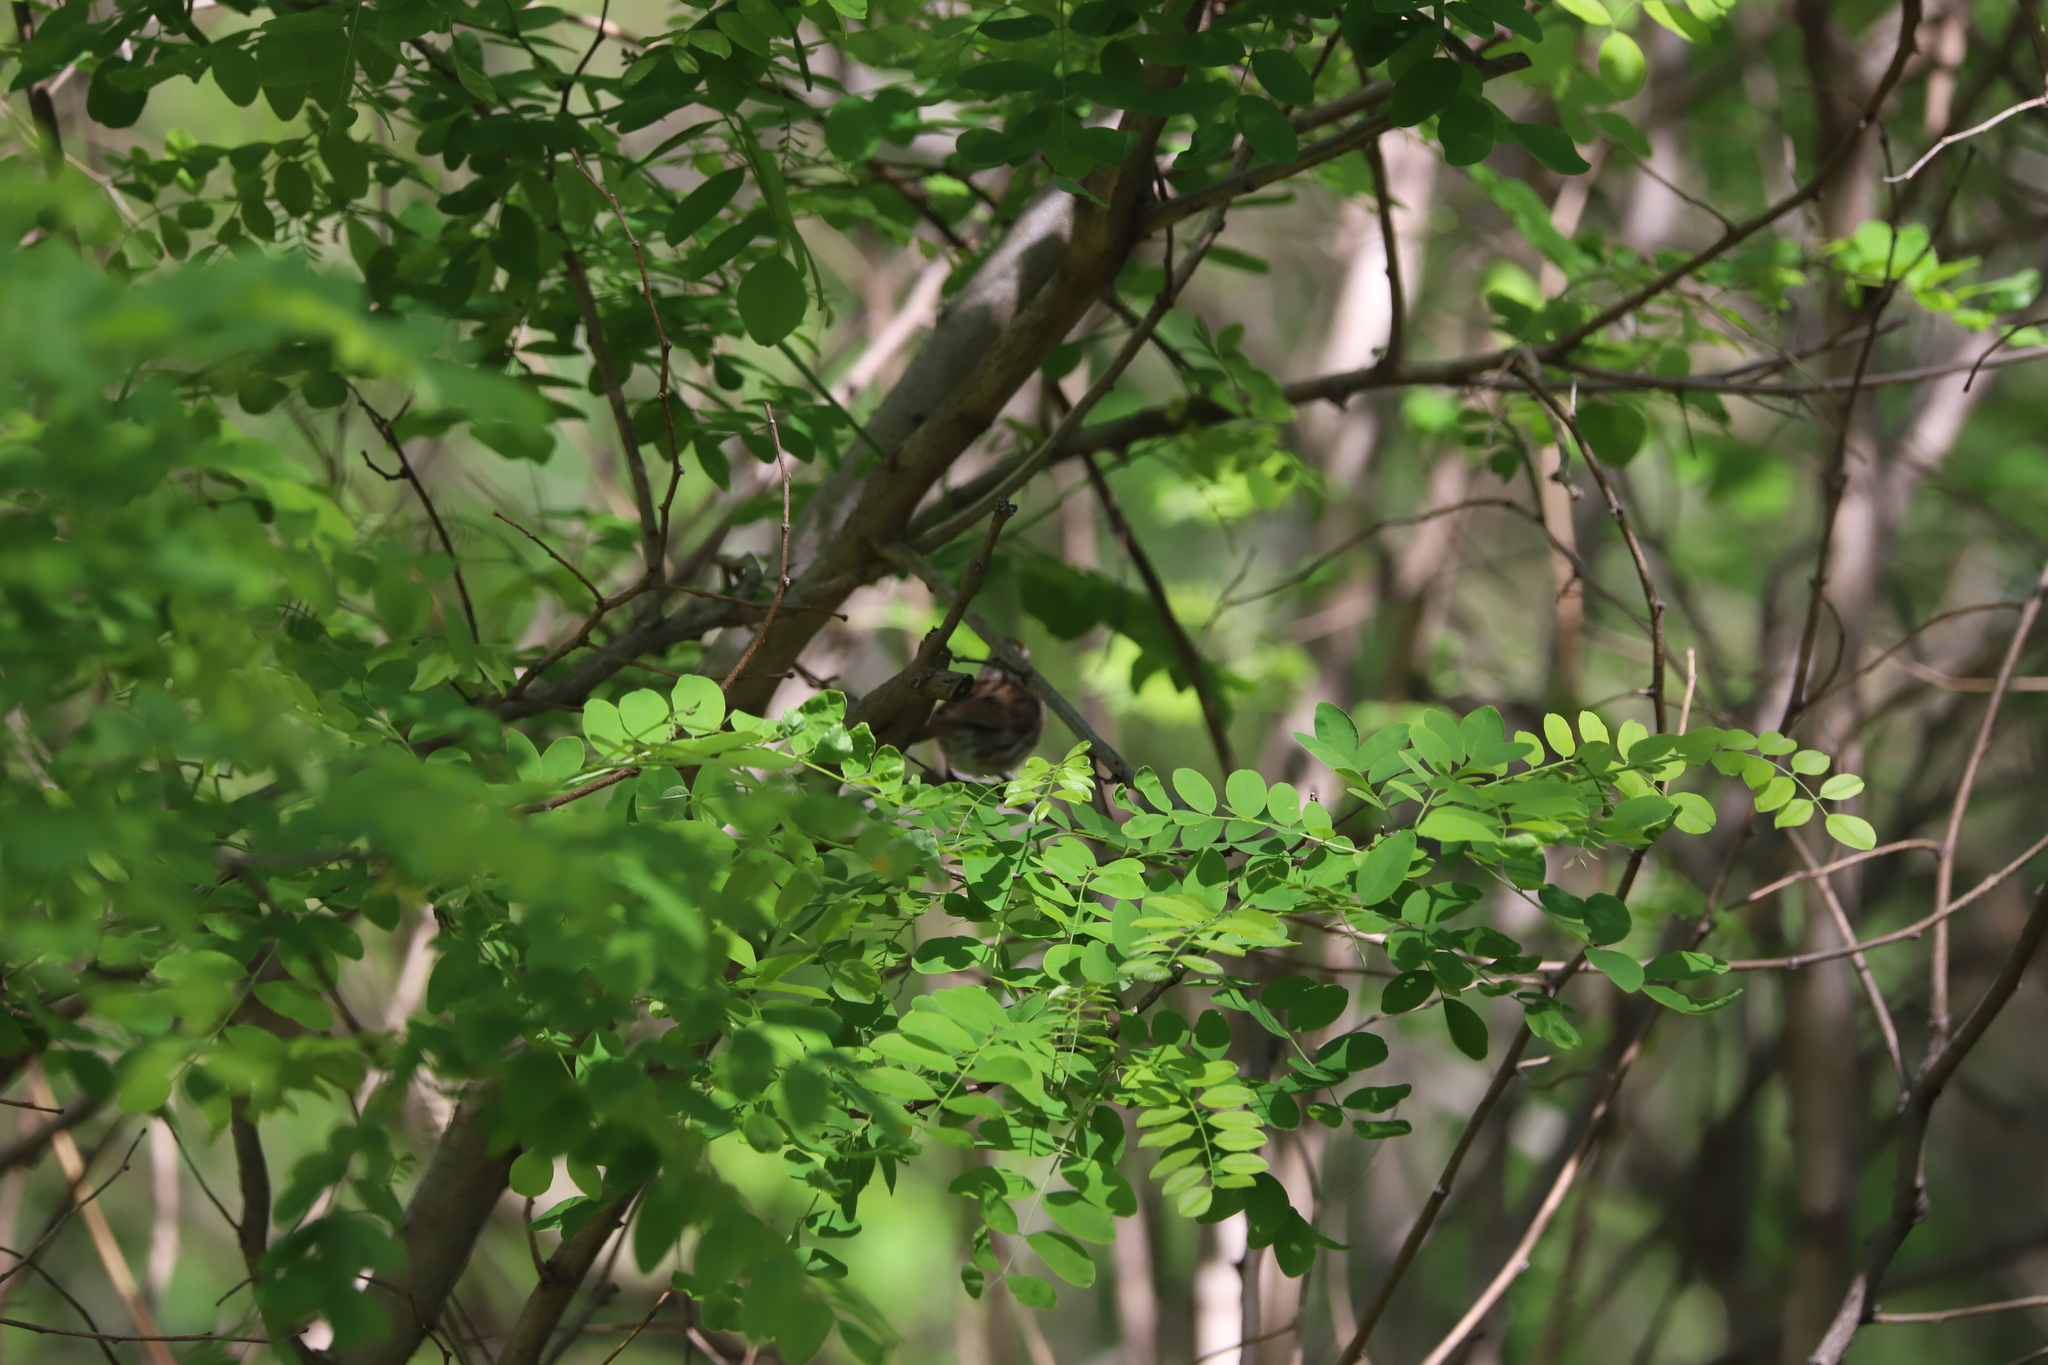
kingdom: Plantae
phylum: Tracheophyta
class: Magnoliopsida
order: Fabales
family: Fabaceae
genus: Gleditsia
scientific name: Gleditsia triacanthos
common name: Common honeylocust
